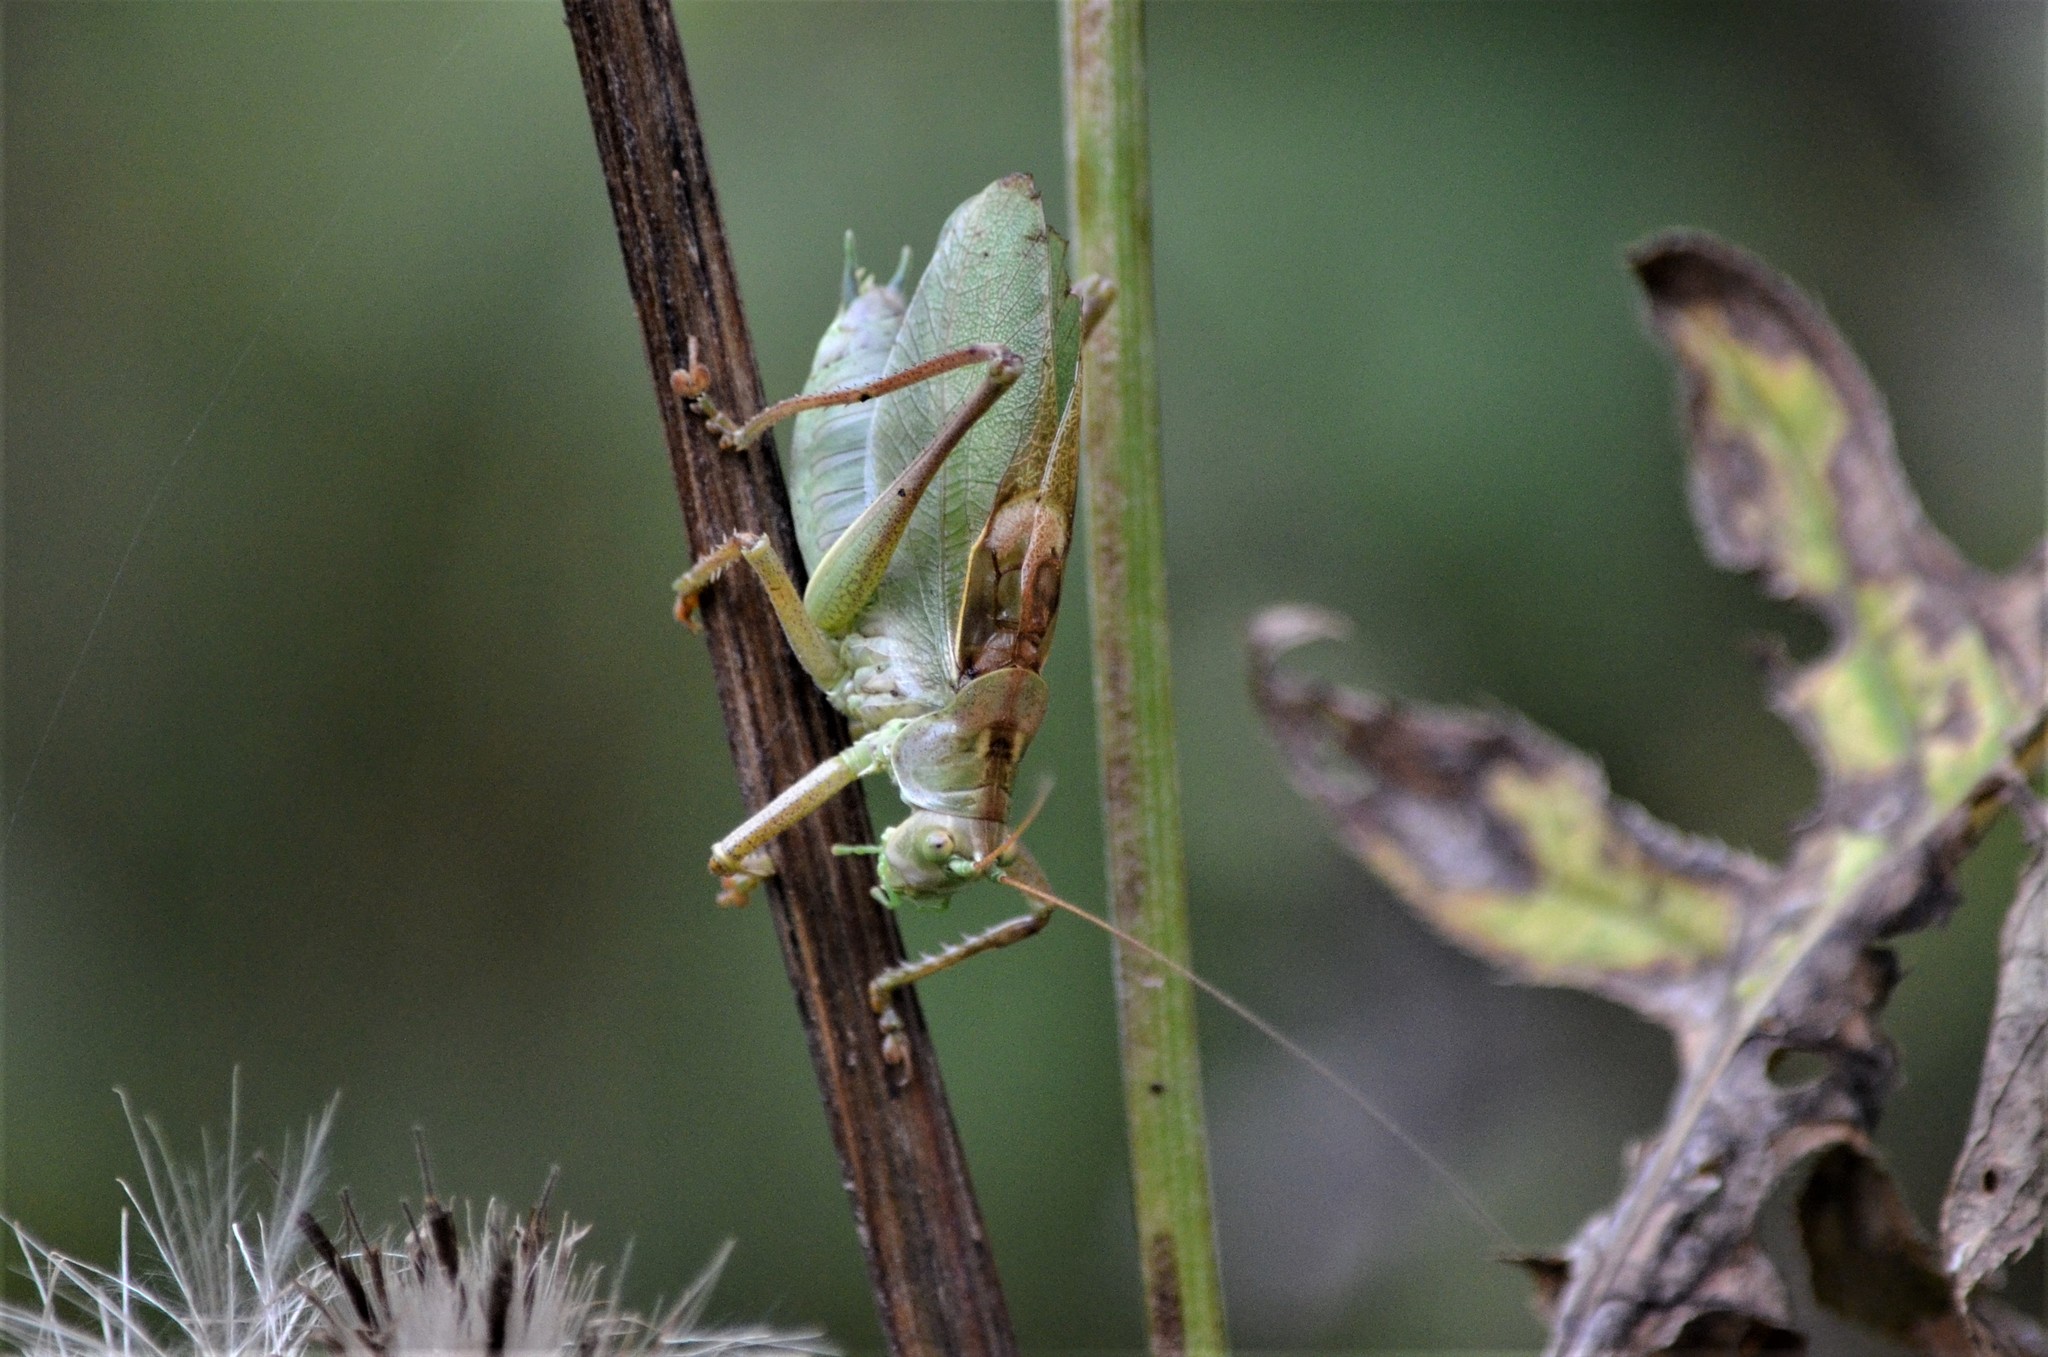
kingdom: Animalia
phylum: Arthropoda
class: Insecta
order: Orthoptera
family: Tettigoniidae
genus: Tettigonia
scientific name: Tettigonia cantans
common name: Upland green bush-cricket
